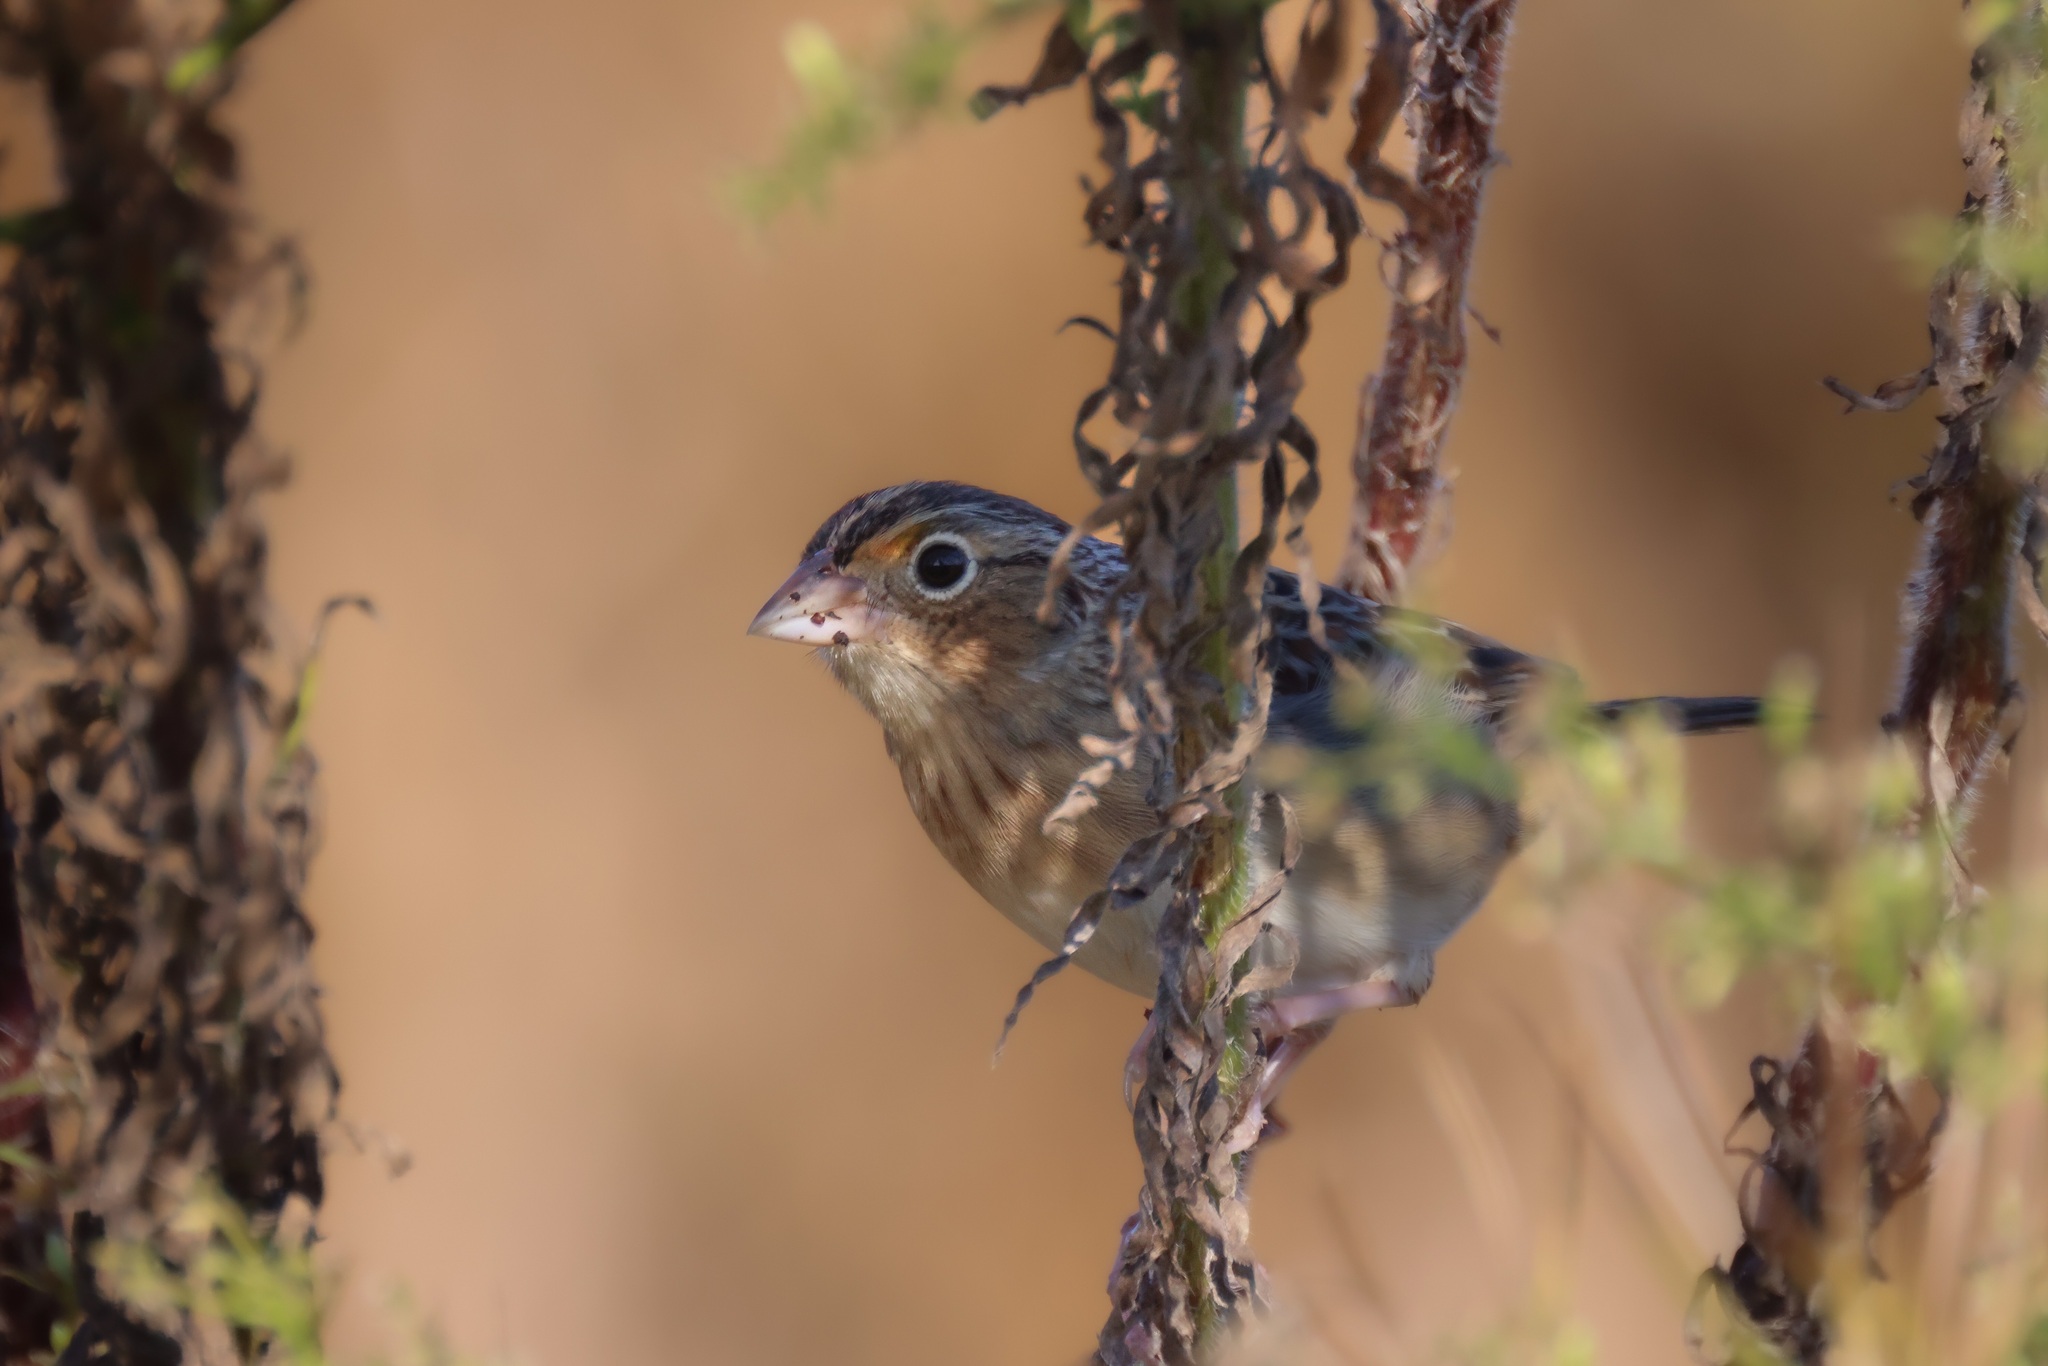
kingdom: Animalia
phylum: Chordata
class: Aves
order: Passeriformes
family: Passerellidae
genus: Ammodramus
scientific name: Ammodramus savannarum
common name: Grasshopper sparrow
